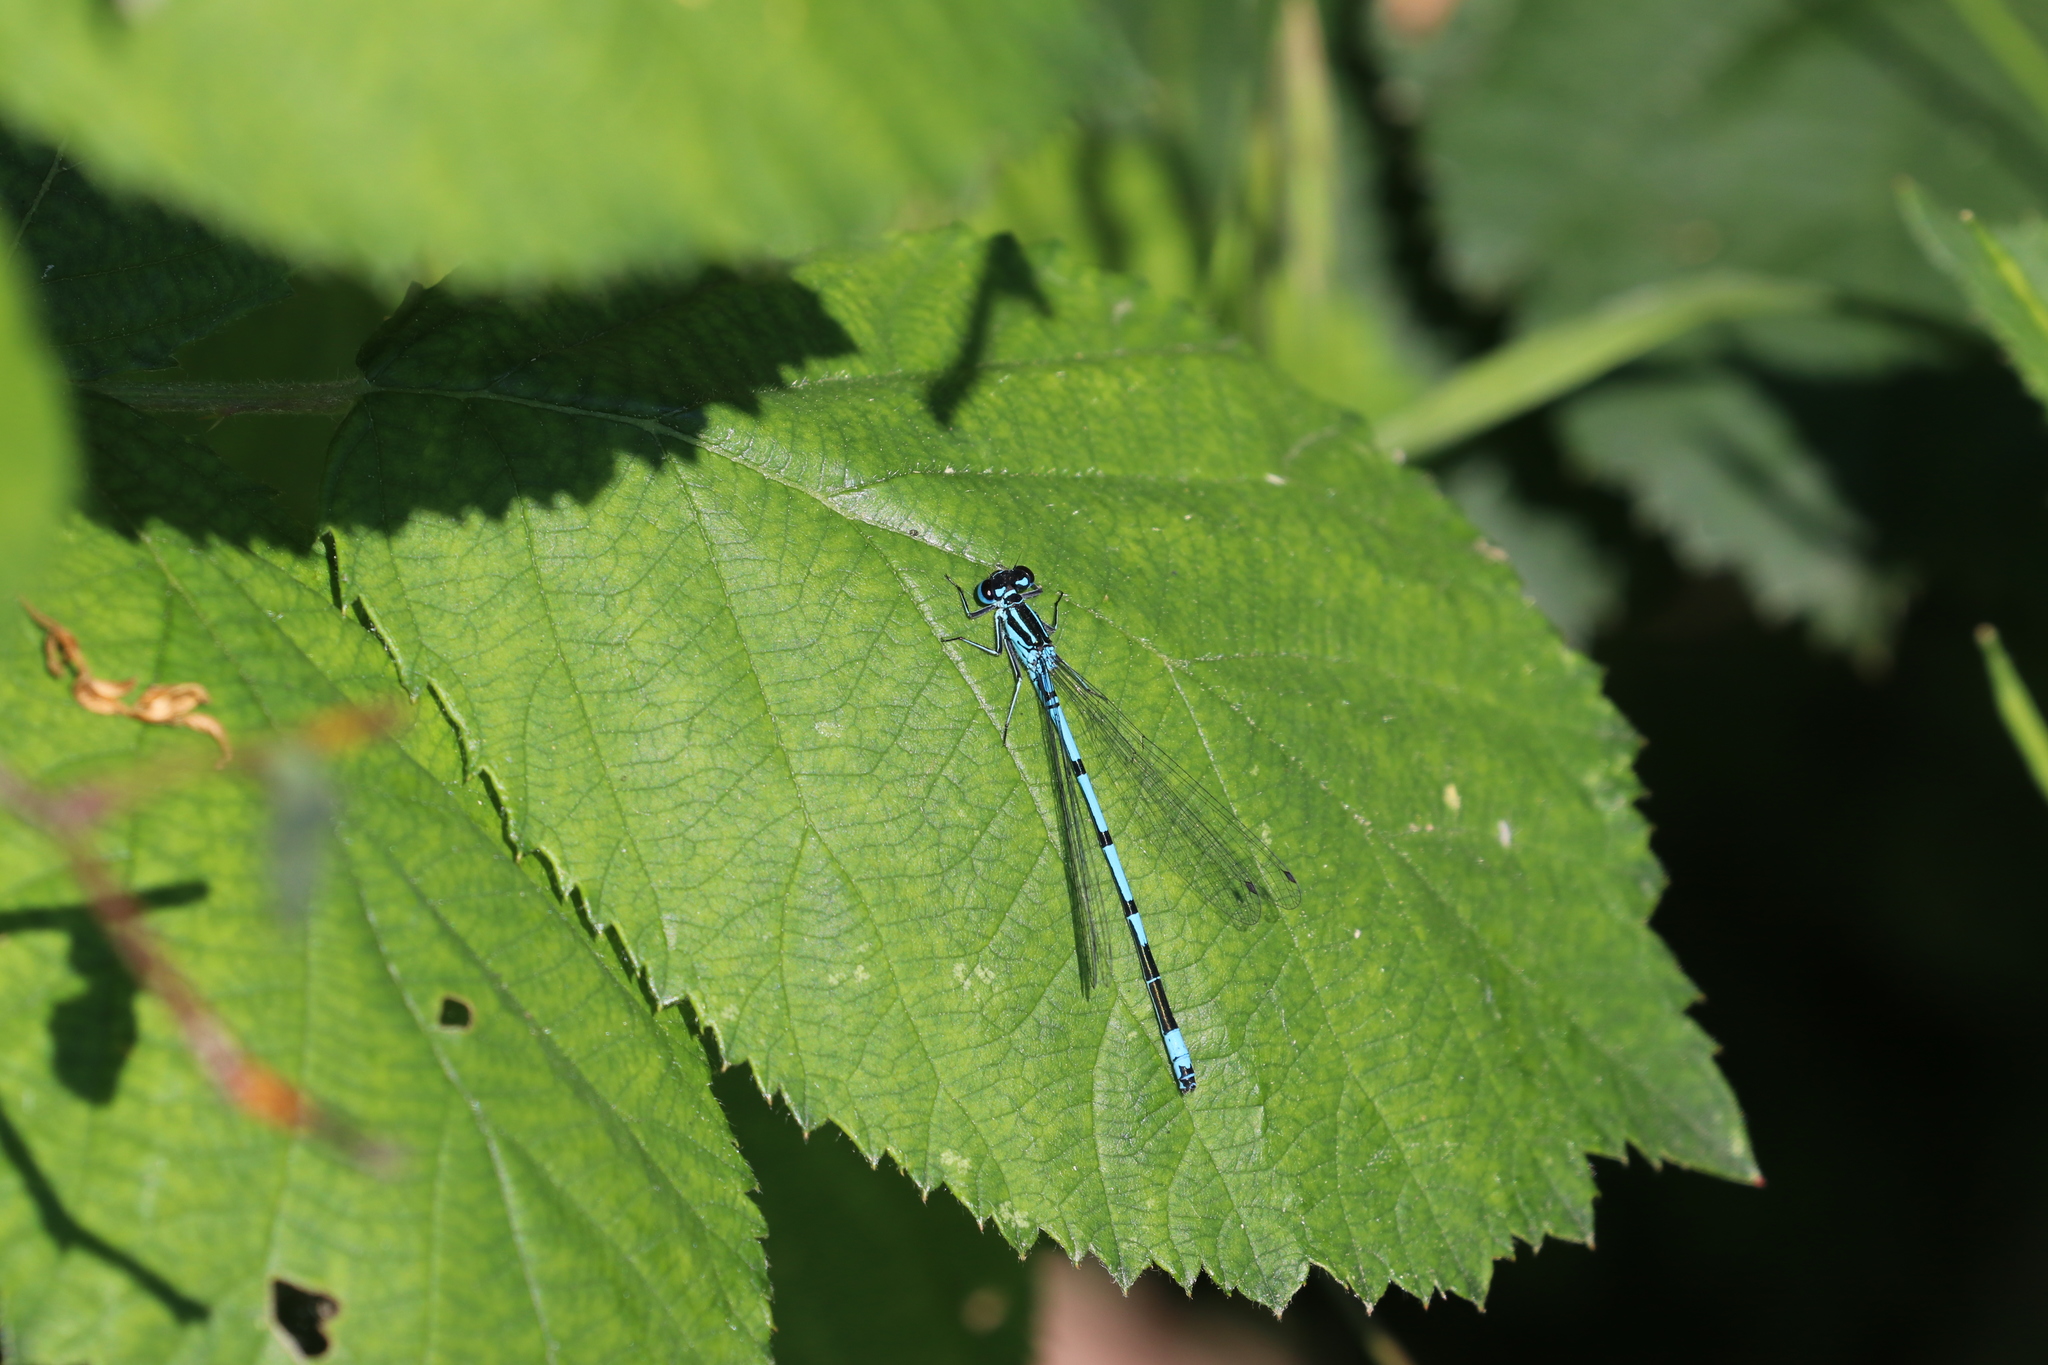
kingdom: Animalia
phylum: Arthropoda
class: Insecta
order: Odonata
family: Coenagrionidae
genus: Coenagrion
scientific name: Coenagrion puella
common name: Azure damselfly
